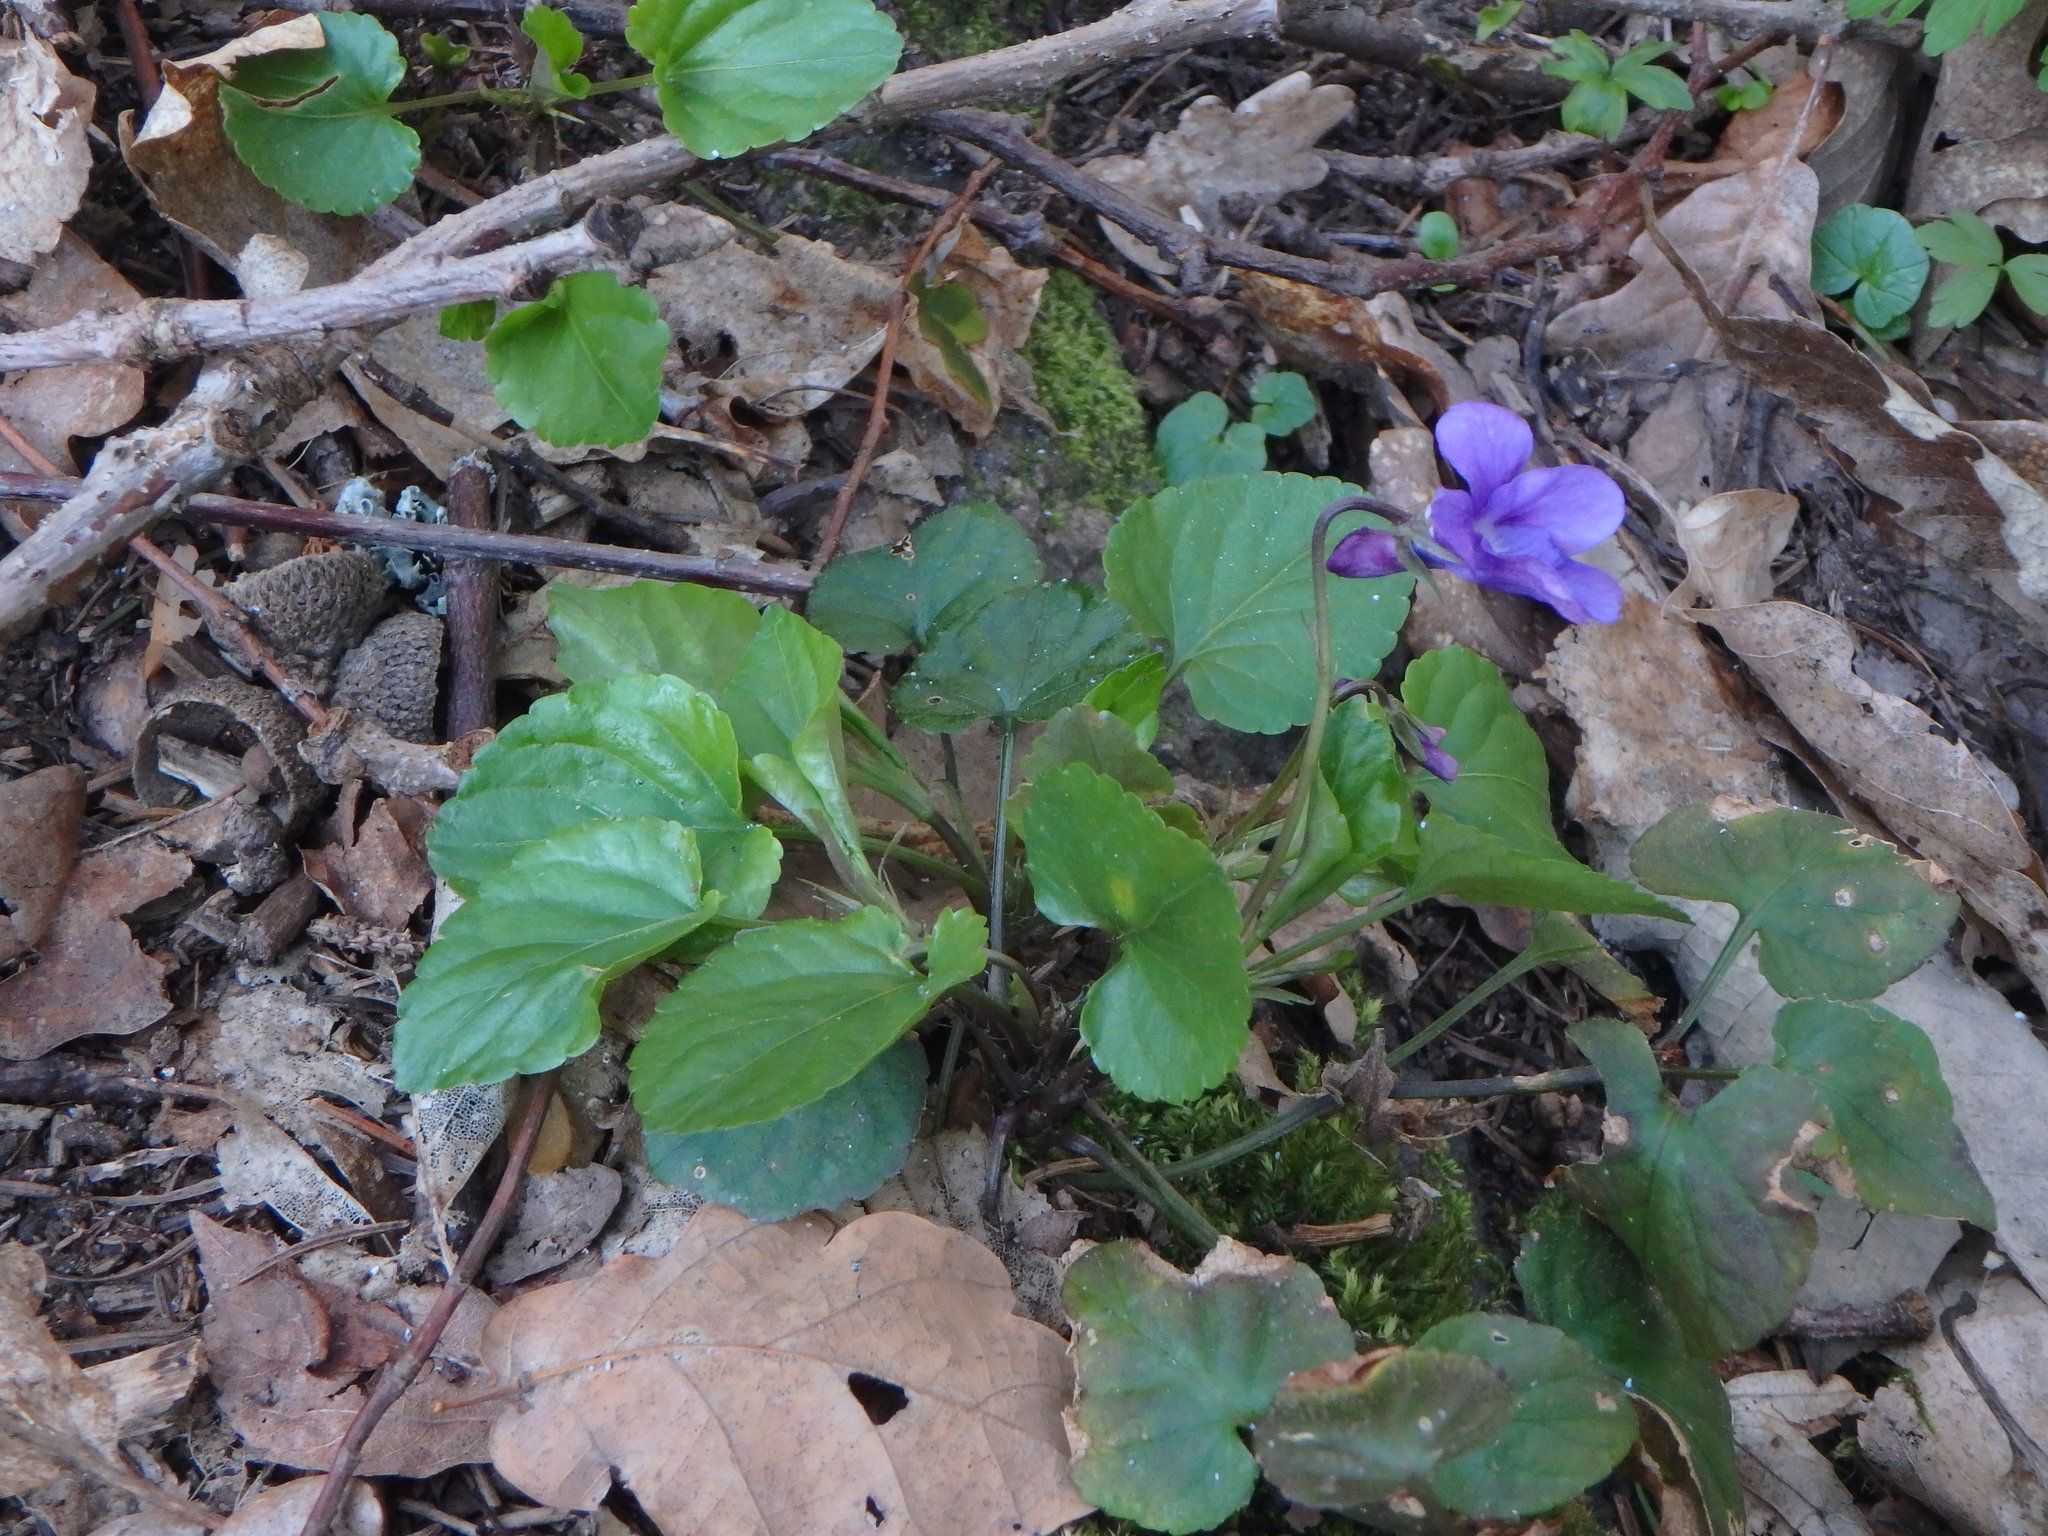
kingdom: Plantae
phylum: Tracheophyta
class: Magnoliopsida
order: Malpighiales
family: Violaceae
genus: Viola
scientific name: Viola reichenbachiana
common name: Early dog-violet
